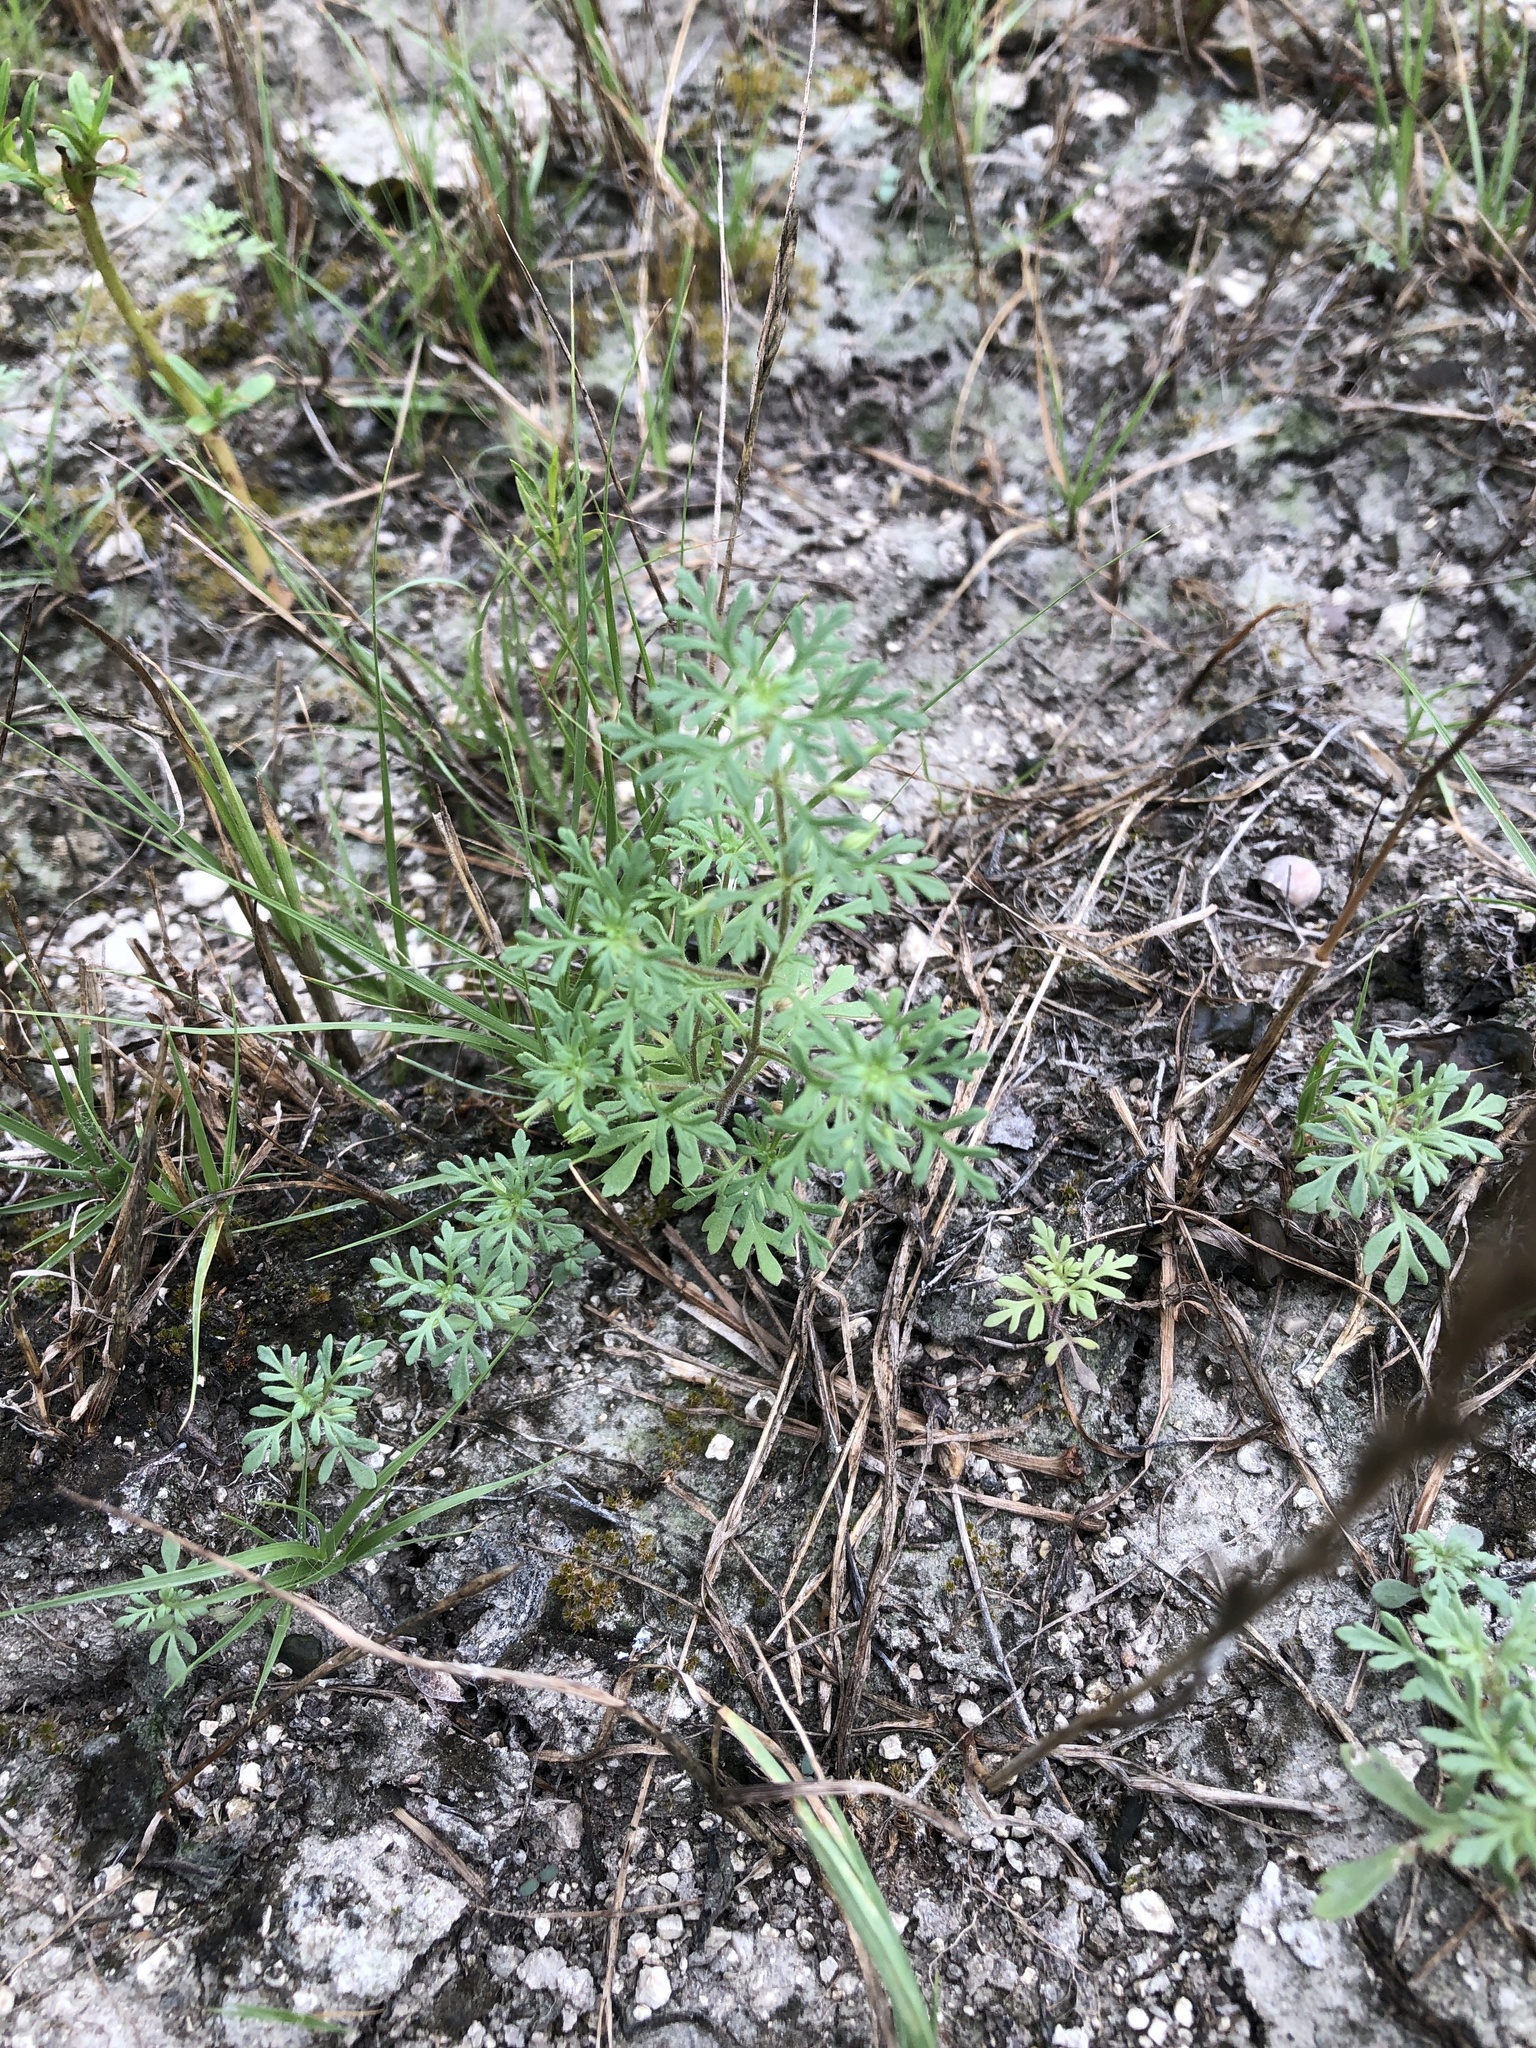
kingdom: Plantae
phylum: Tracheophyta
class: Magnoliopsida
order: Lamiales
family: Plantaginaceae
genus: Leucospora
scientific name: Leucospora multifida
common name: Narrow-leaf paleseed
